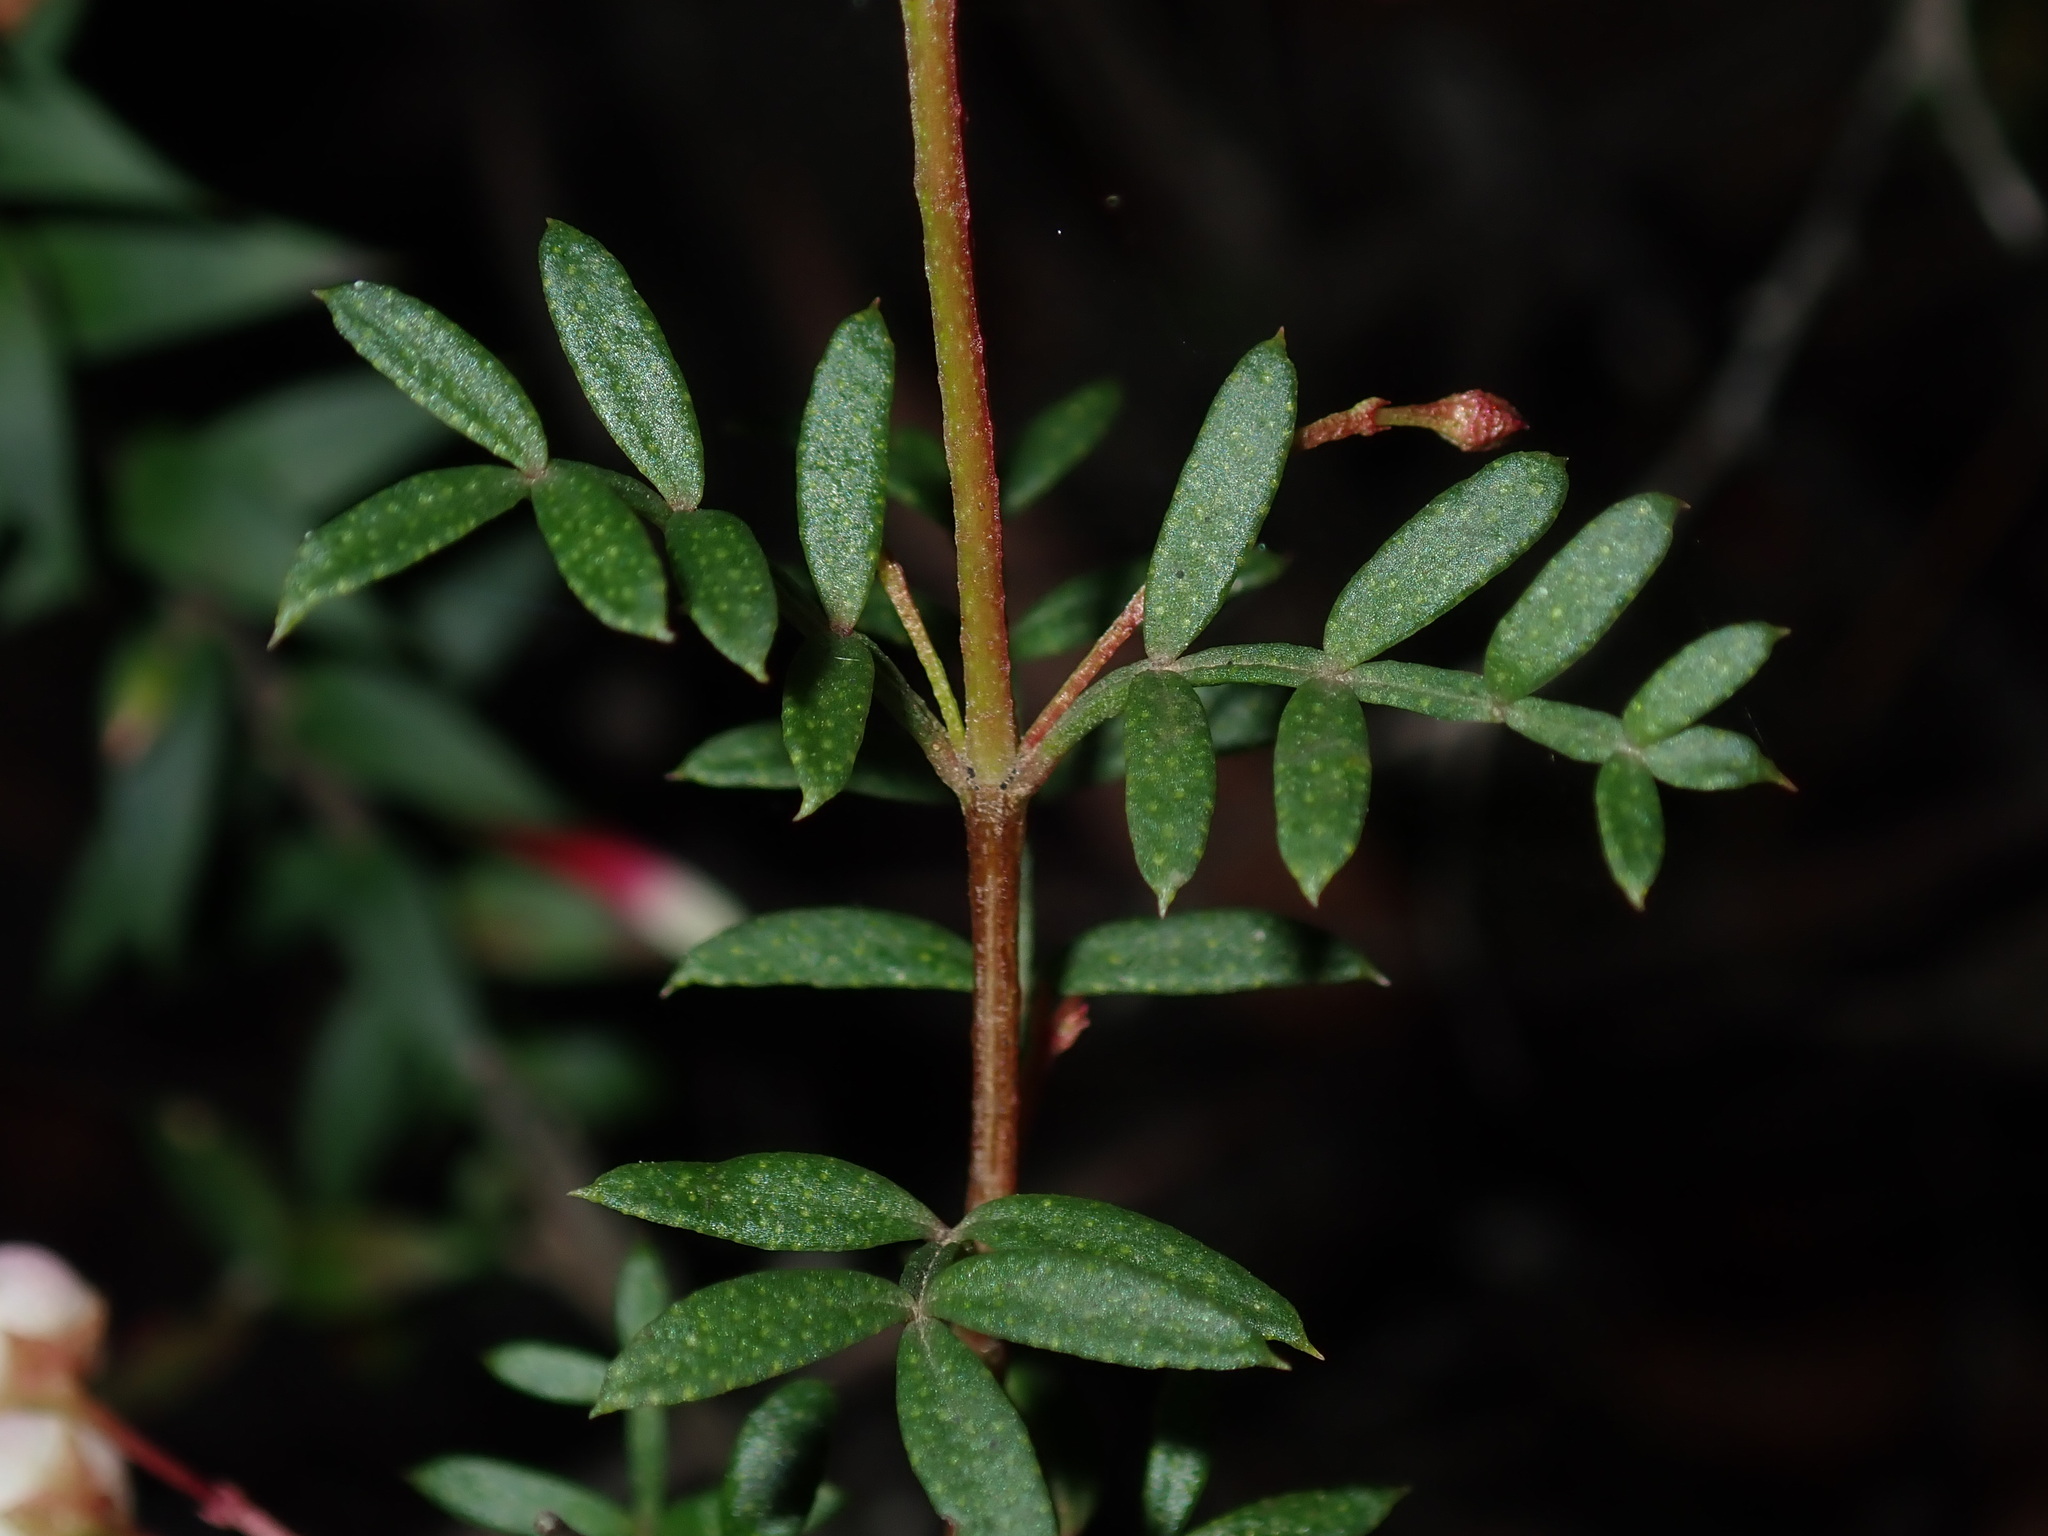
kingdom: Plantae
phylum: Tracheophyta
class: Magnoliopsida
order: Sapindales
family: Rutaceae
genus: Boronia
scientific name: Boronia floribunda
